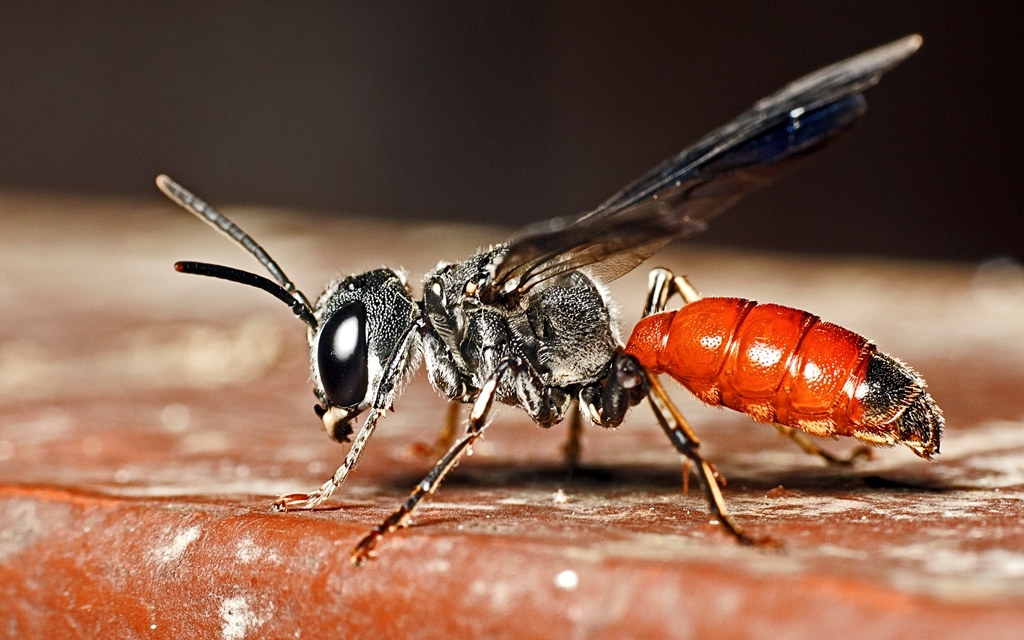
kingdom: Animalia
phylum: Arthropoda
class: Insecta
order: Hymenoptera
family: Crabronidae
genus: Cerceris
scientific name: Cerceris
